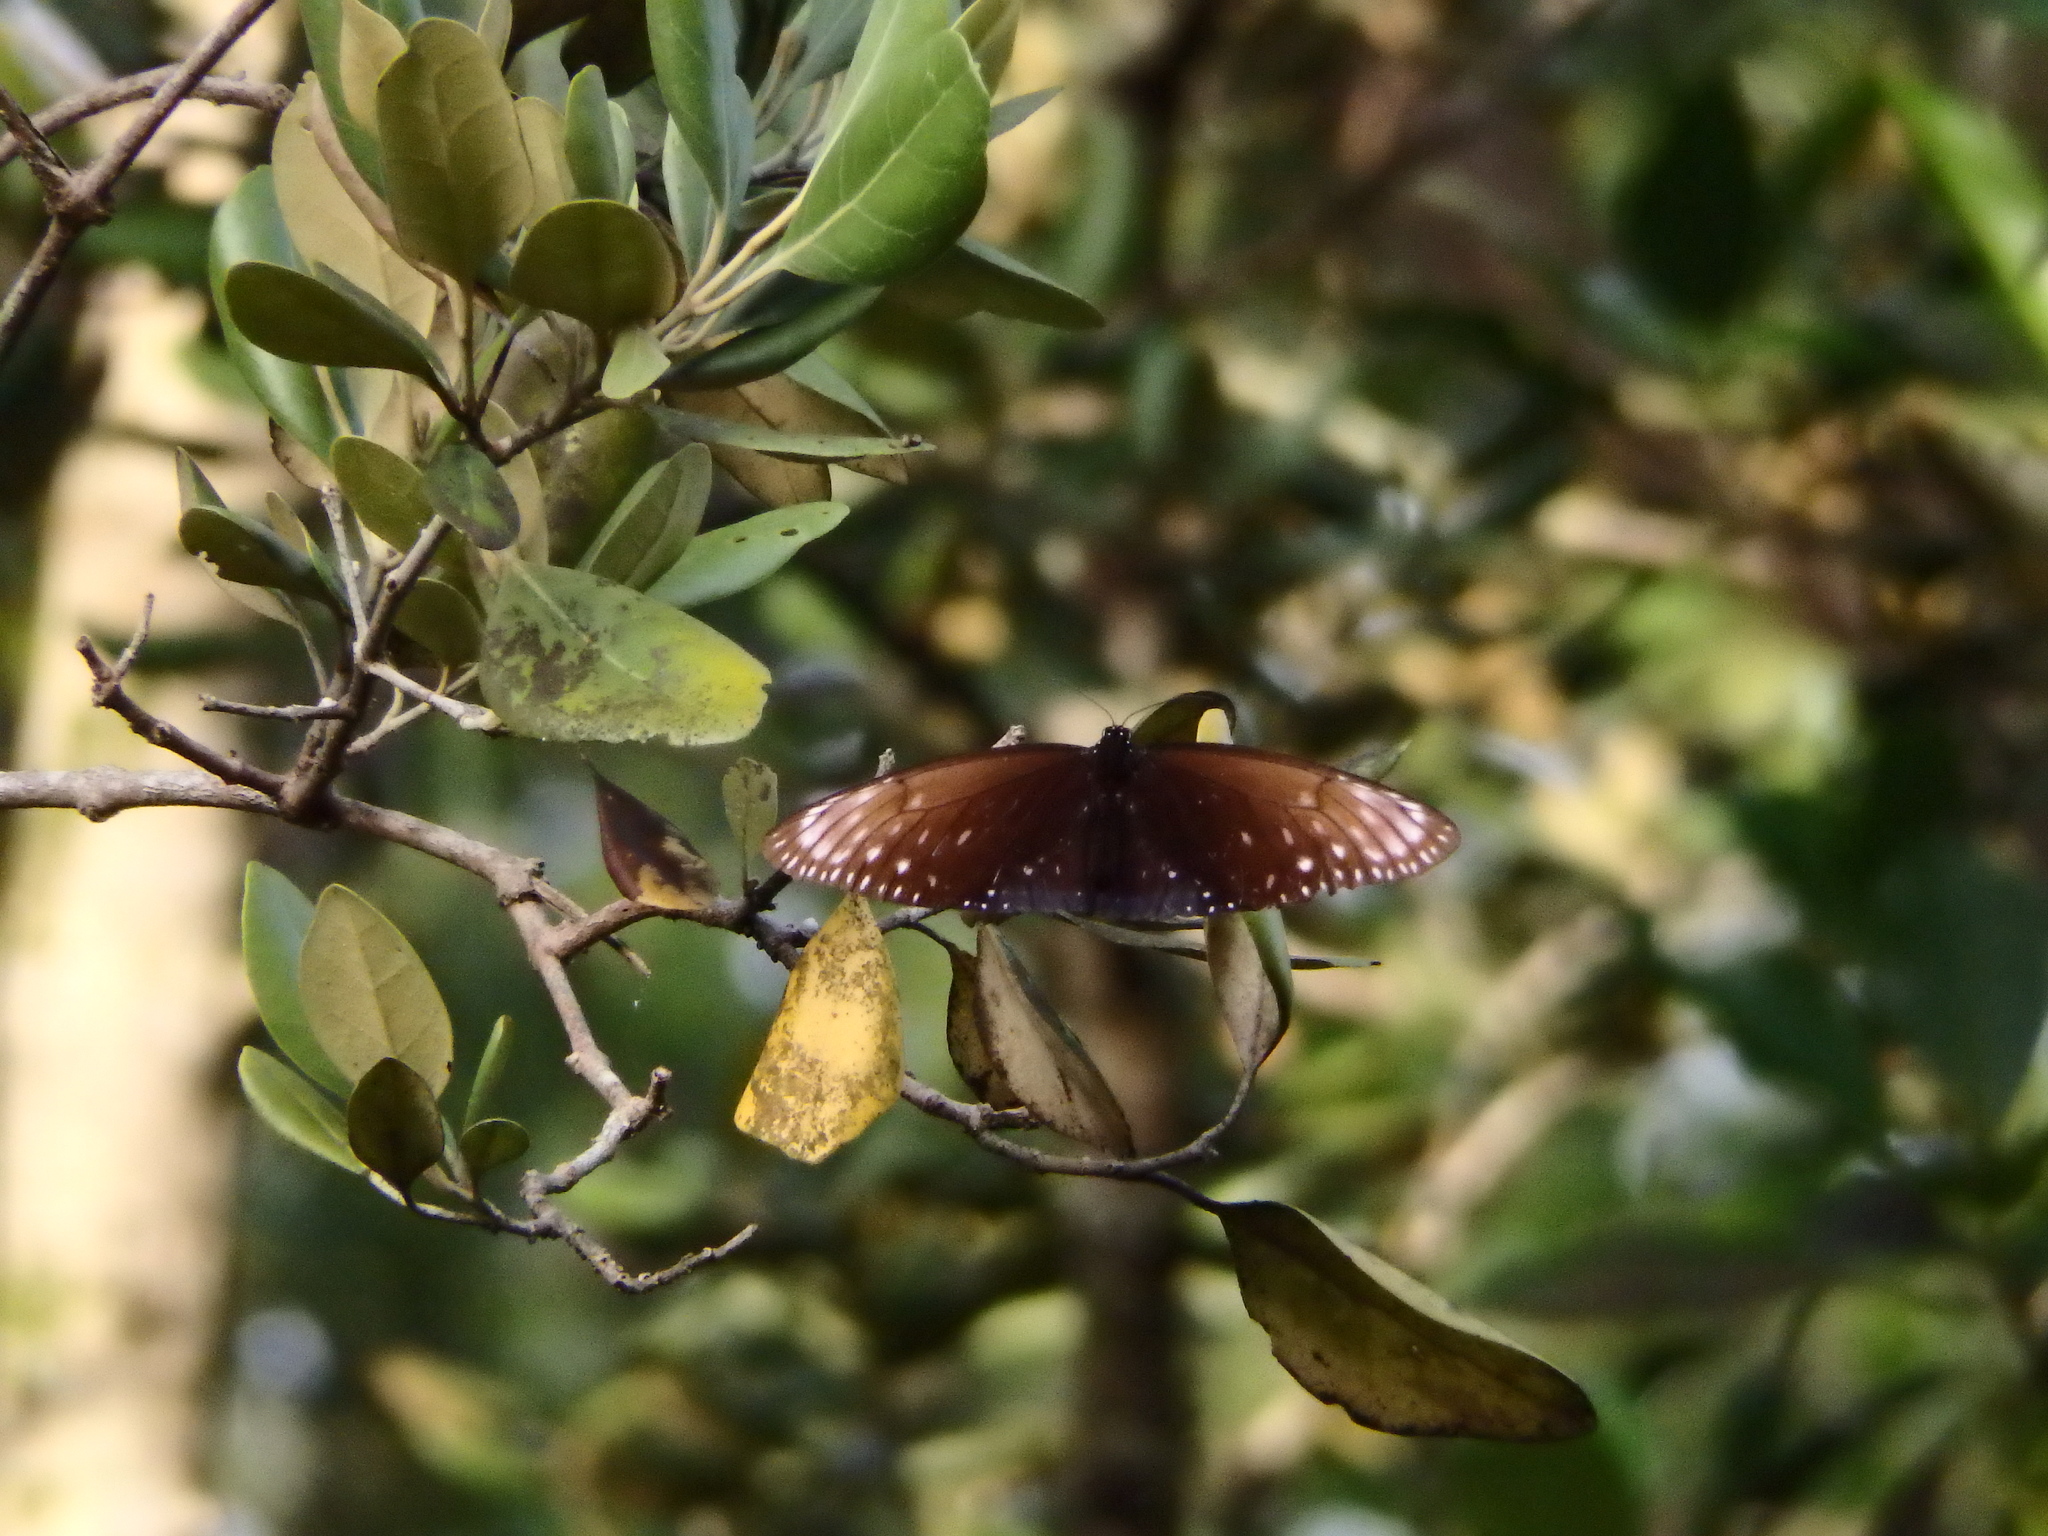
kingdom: Animalia
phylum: Arthropoda
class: Insecta
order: Lepidoptera
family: Nymphalidae
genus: Euploea
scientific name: Euploea phaenareta
